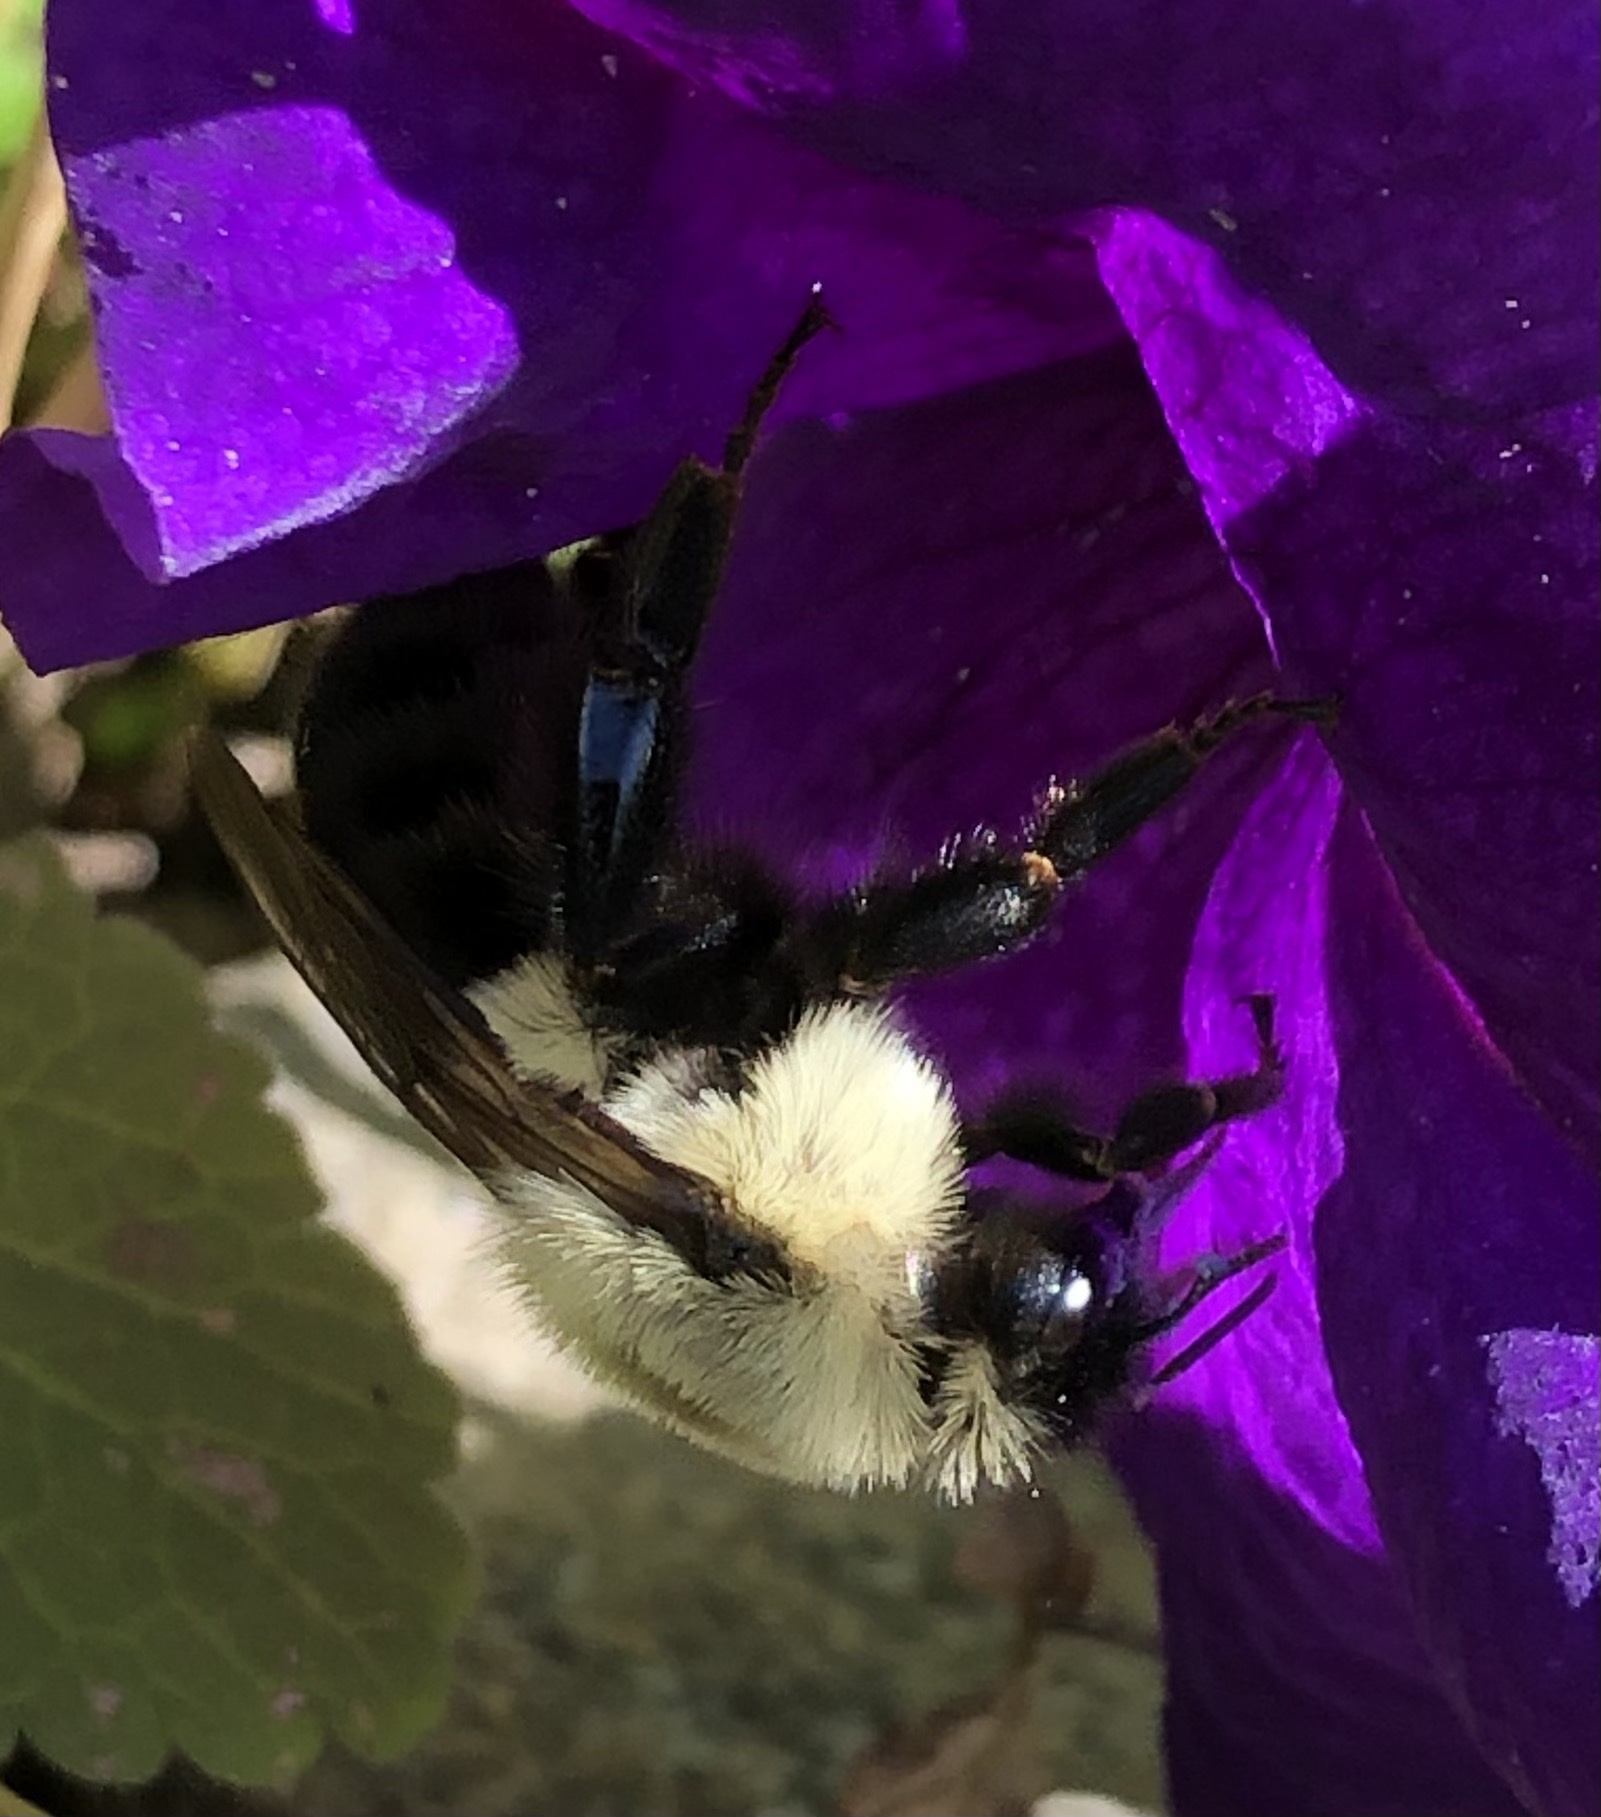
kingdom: Animalia
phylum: Arthropoda
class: Insecta
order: Hymenoptera
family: Apidae
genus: Bombus
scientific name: Bombus impatiens
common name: Common eastern bumble bee
